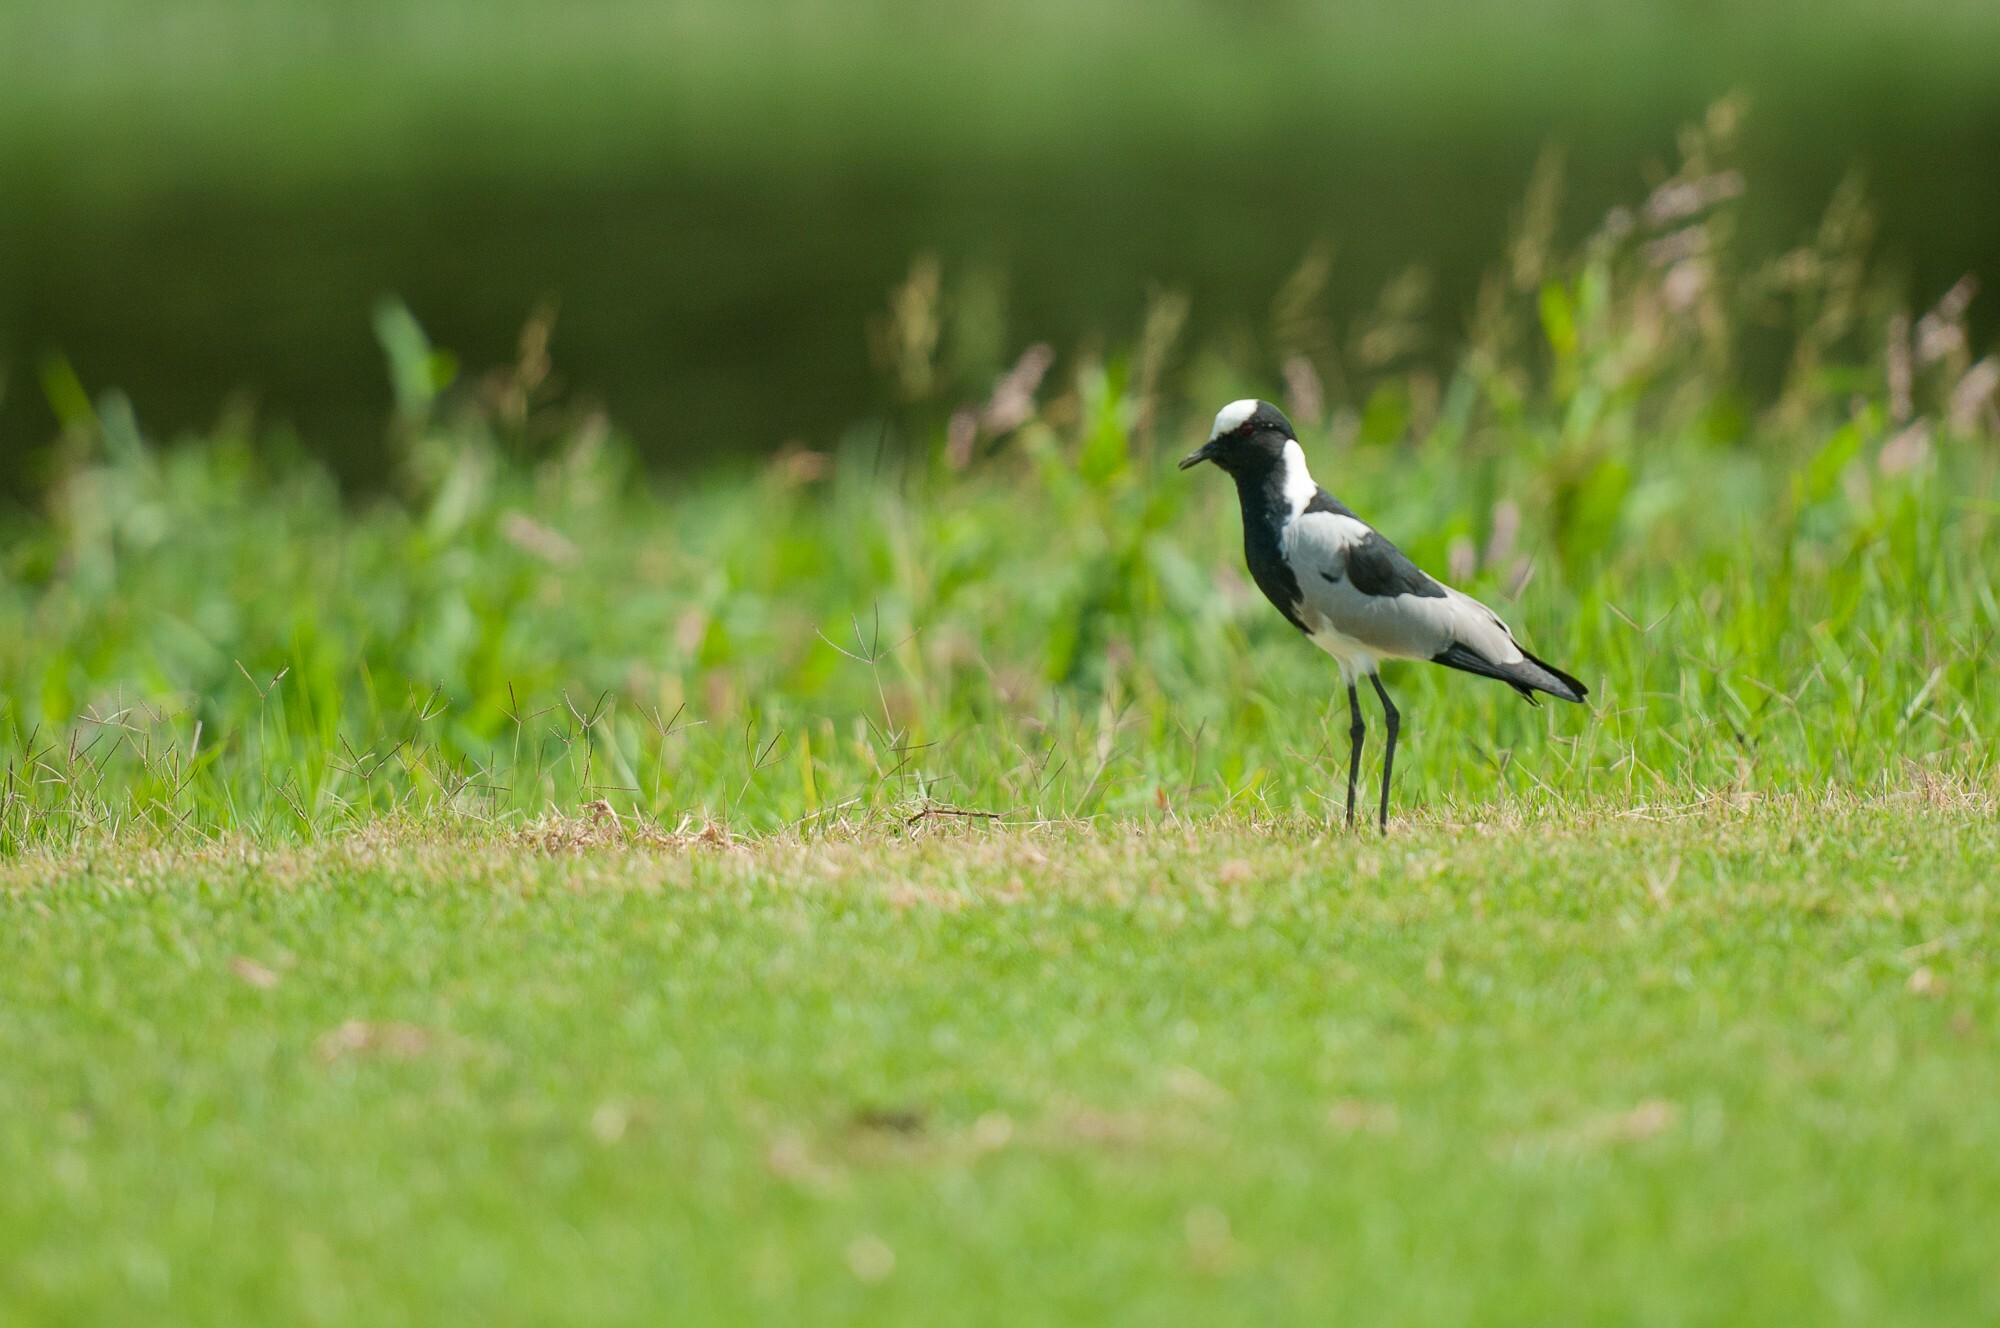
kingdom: Animalia
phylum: Chordata
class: Aves
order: Charadriiformes
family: Charadriidae
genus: Vanellus
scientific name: Vanellus armatus
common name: Blacksmith lapwing
